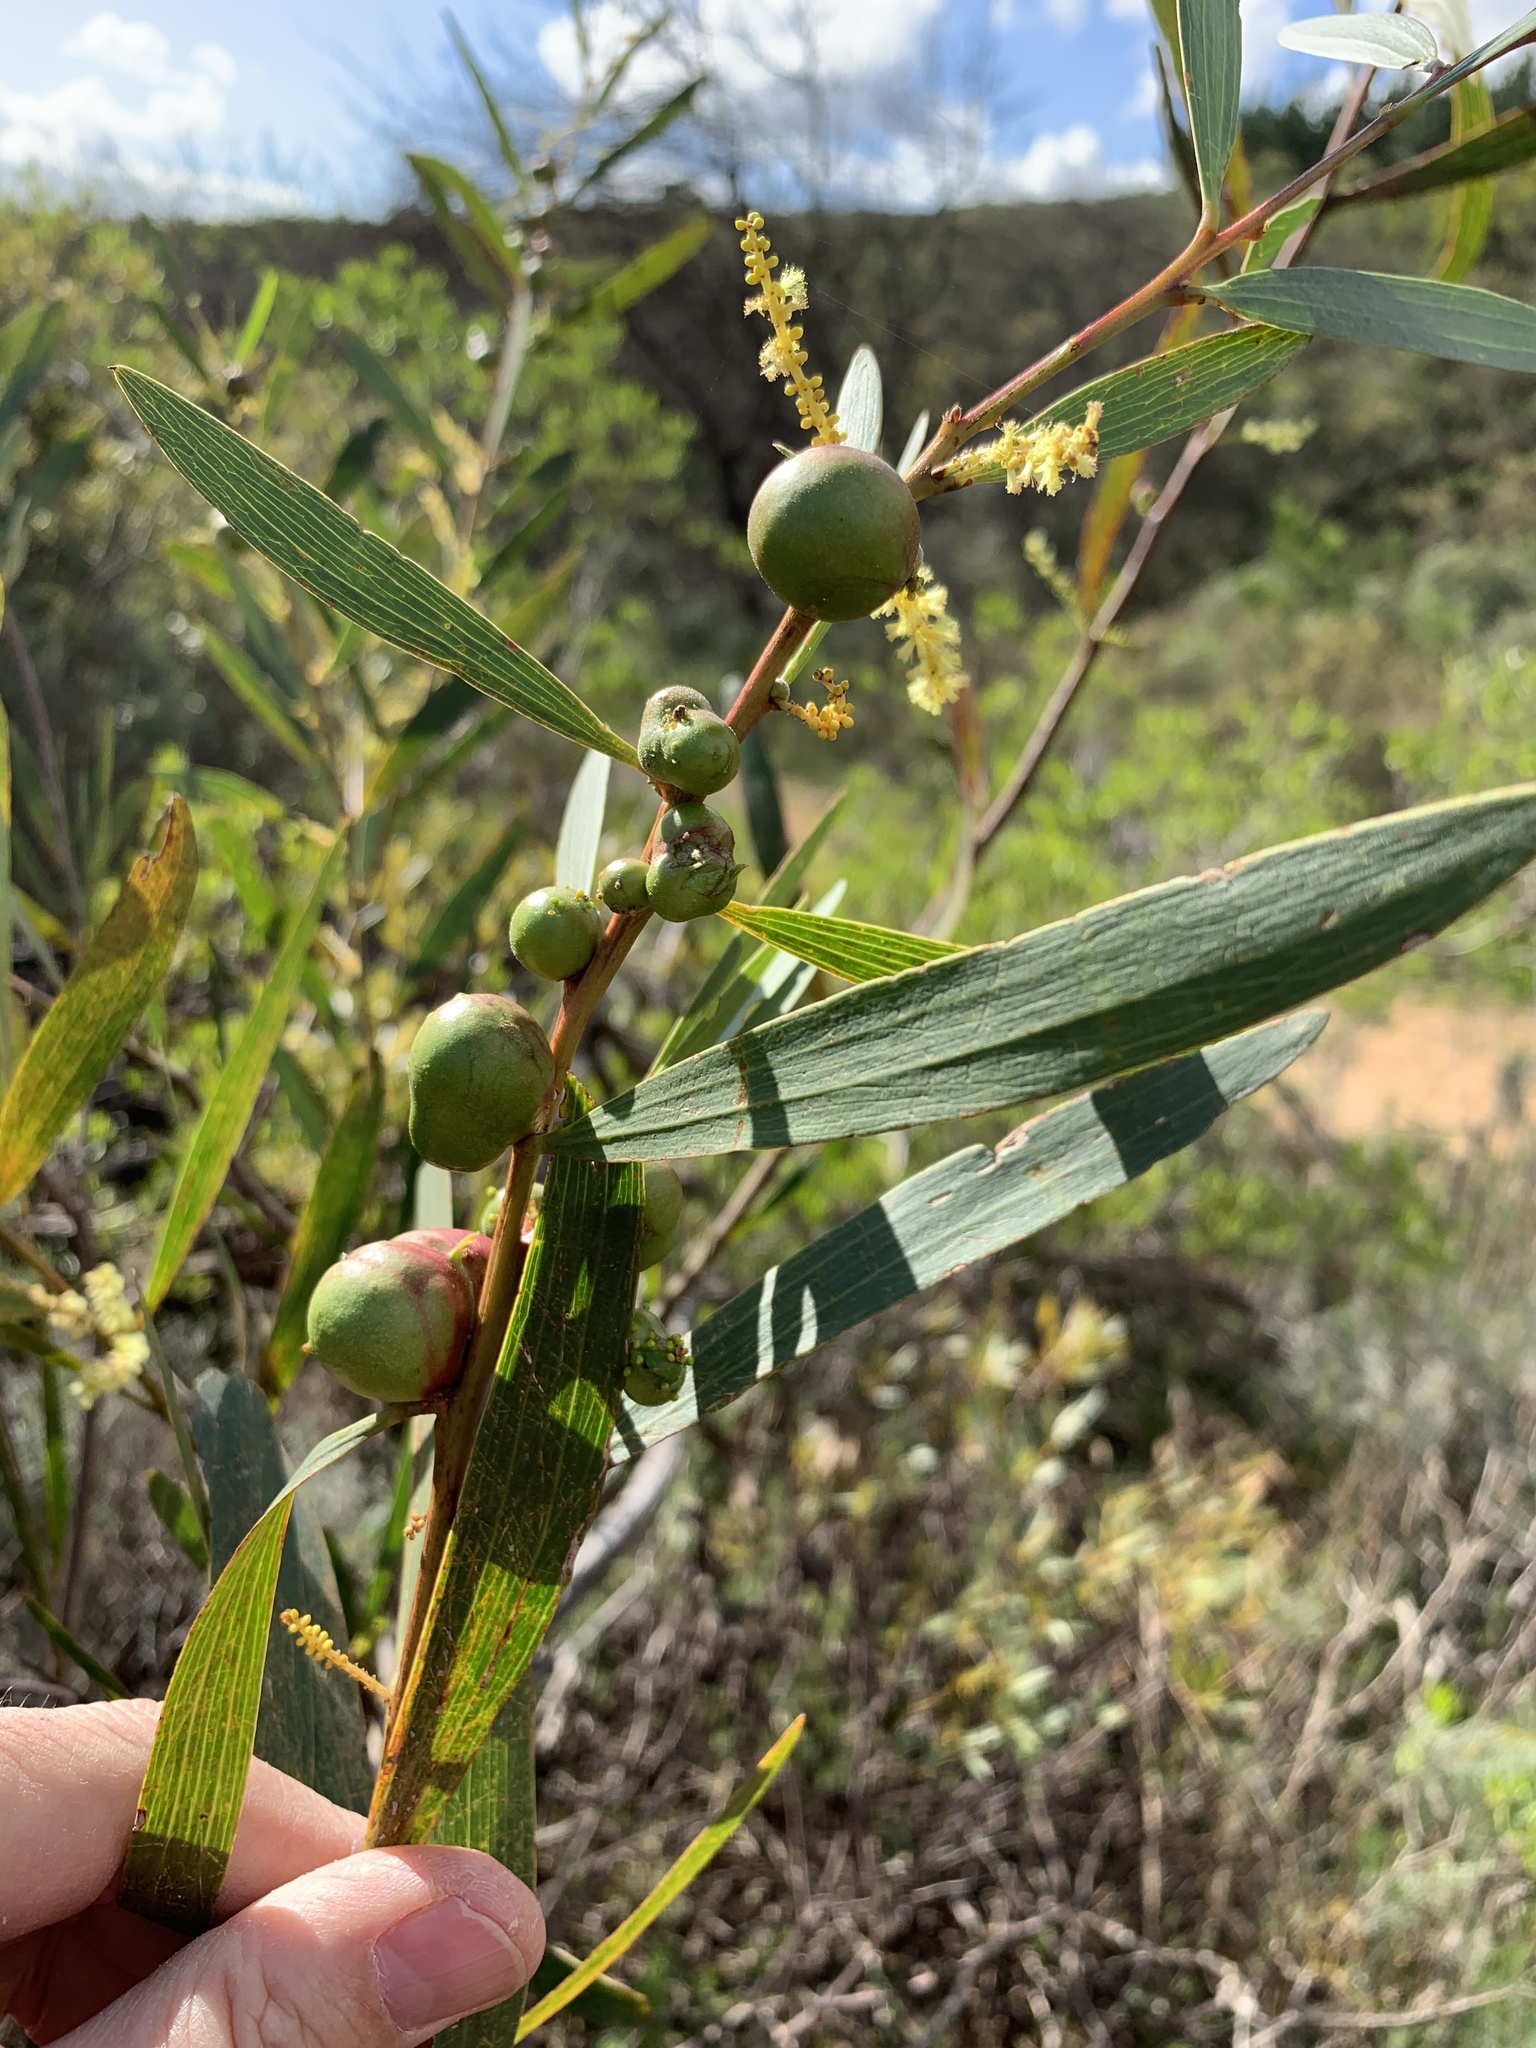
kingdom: Animalia
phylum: Arthropoda
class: Insecta
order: Hymenoptera
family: Pteromalidae
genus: Trichilogaster
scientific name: Trichilogaster acaciaelongifoliae
